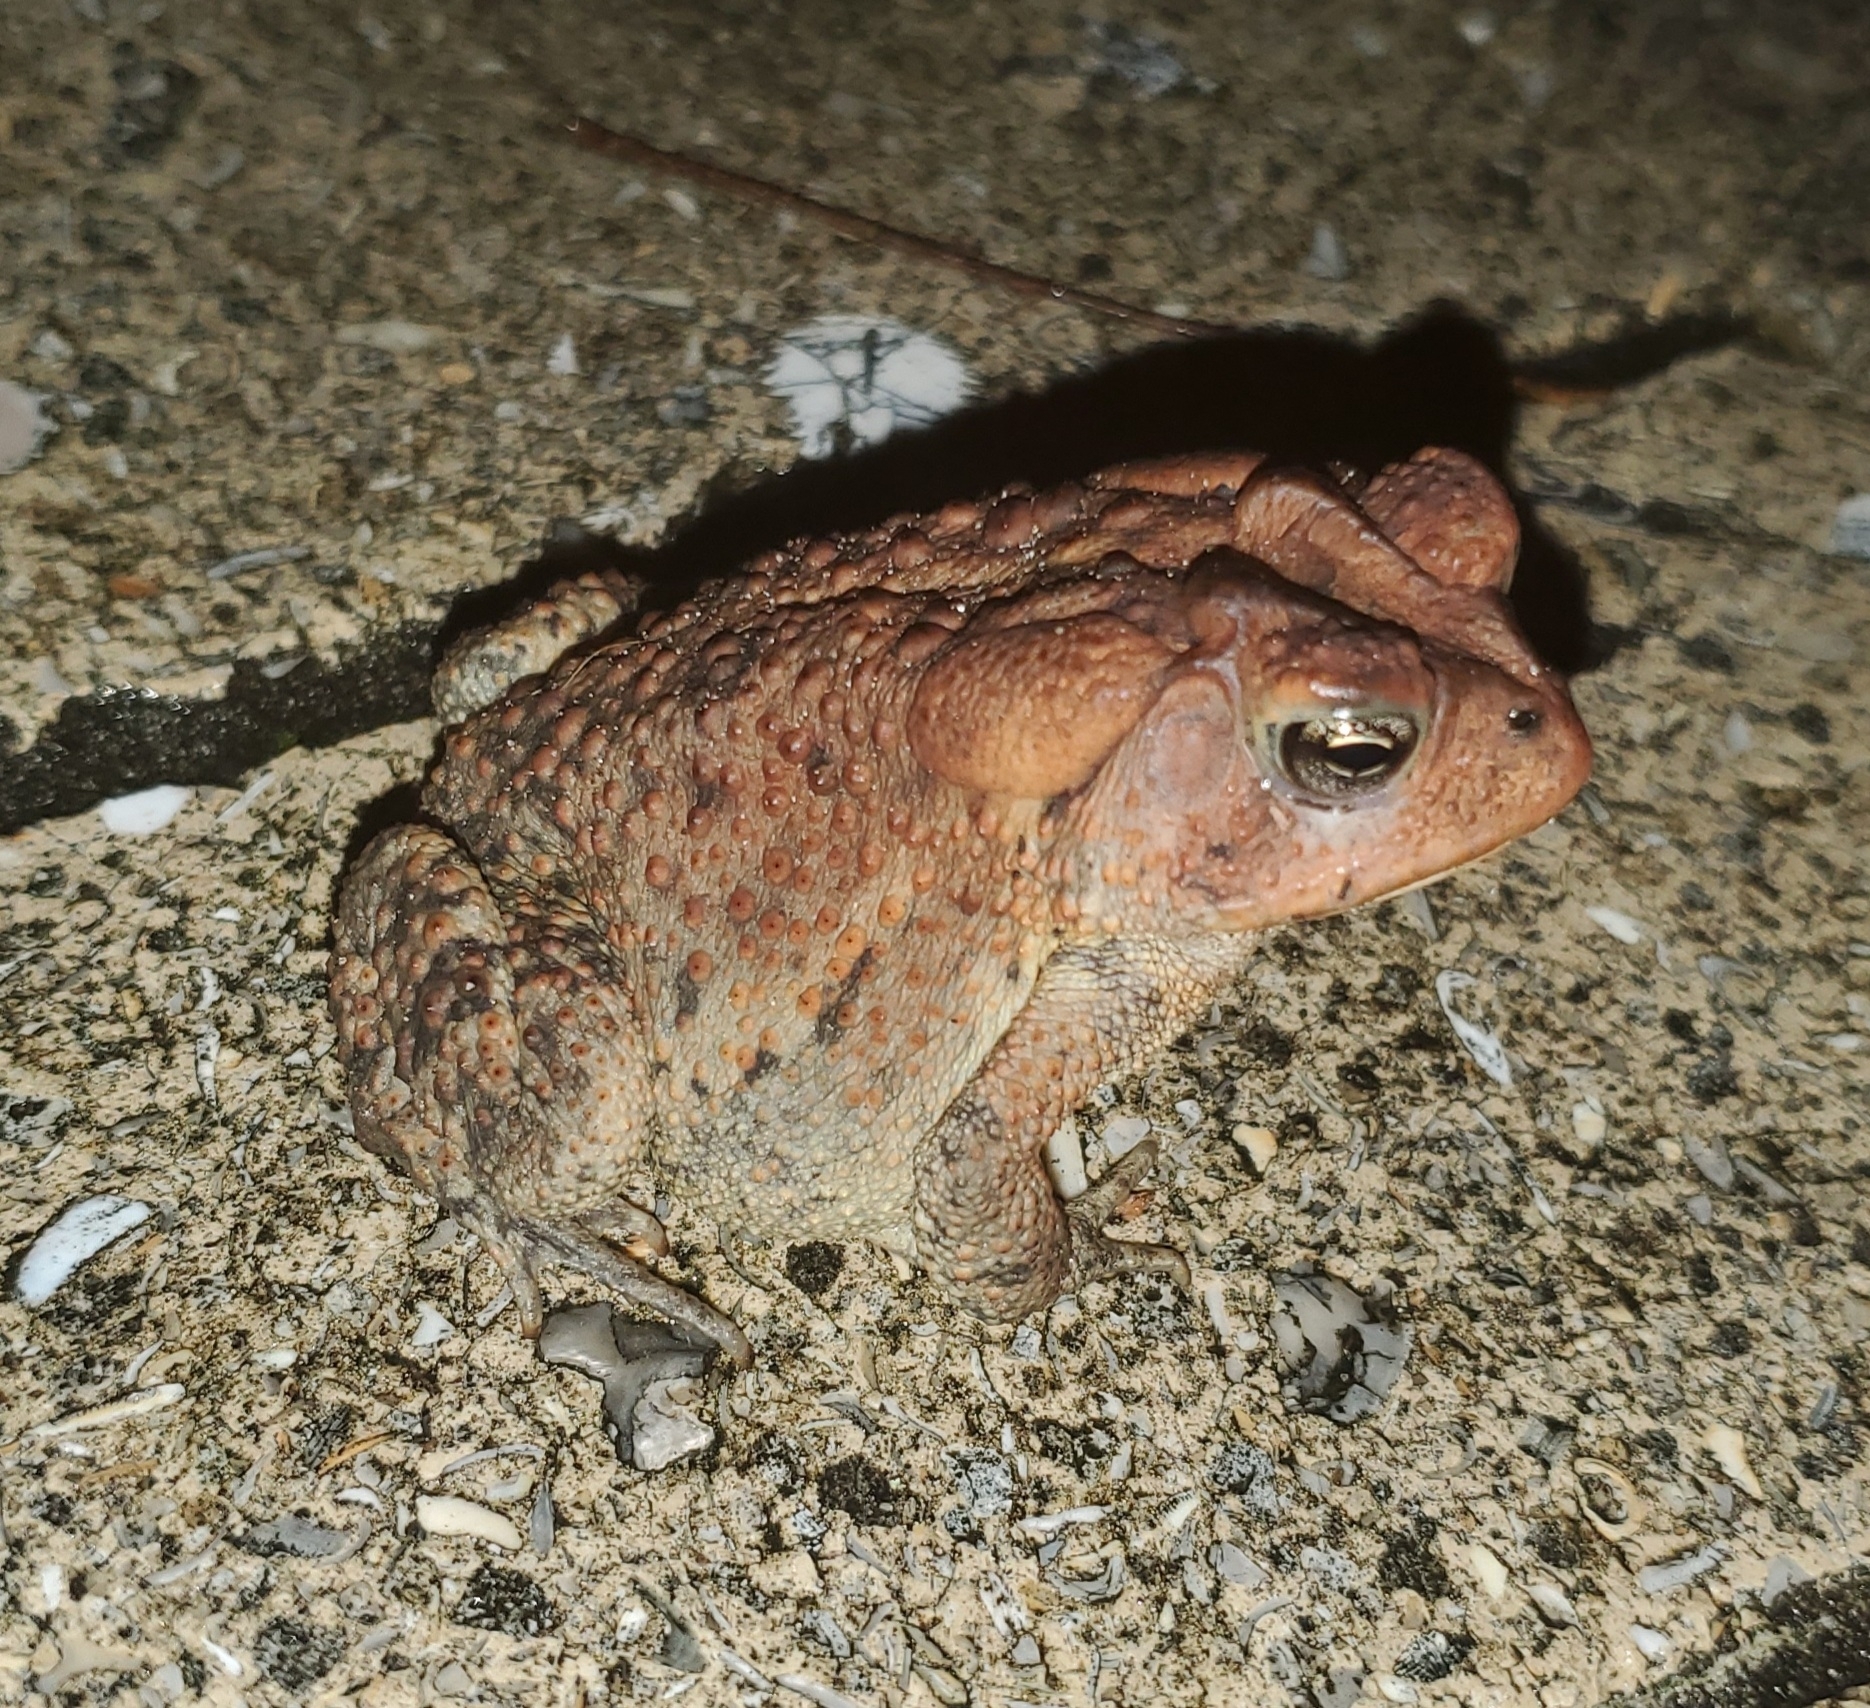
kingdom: Animalia
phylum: Chordata
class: Amphibia
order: Anura
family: Bufonidae
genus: Anaxyrus
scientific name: Anaxyrus terrestris
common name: Southern toad
